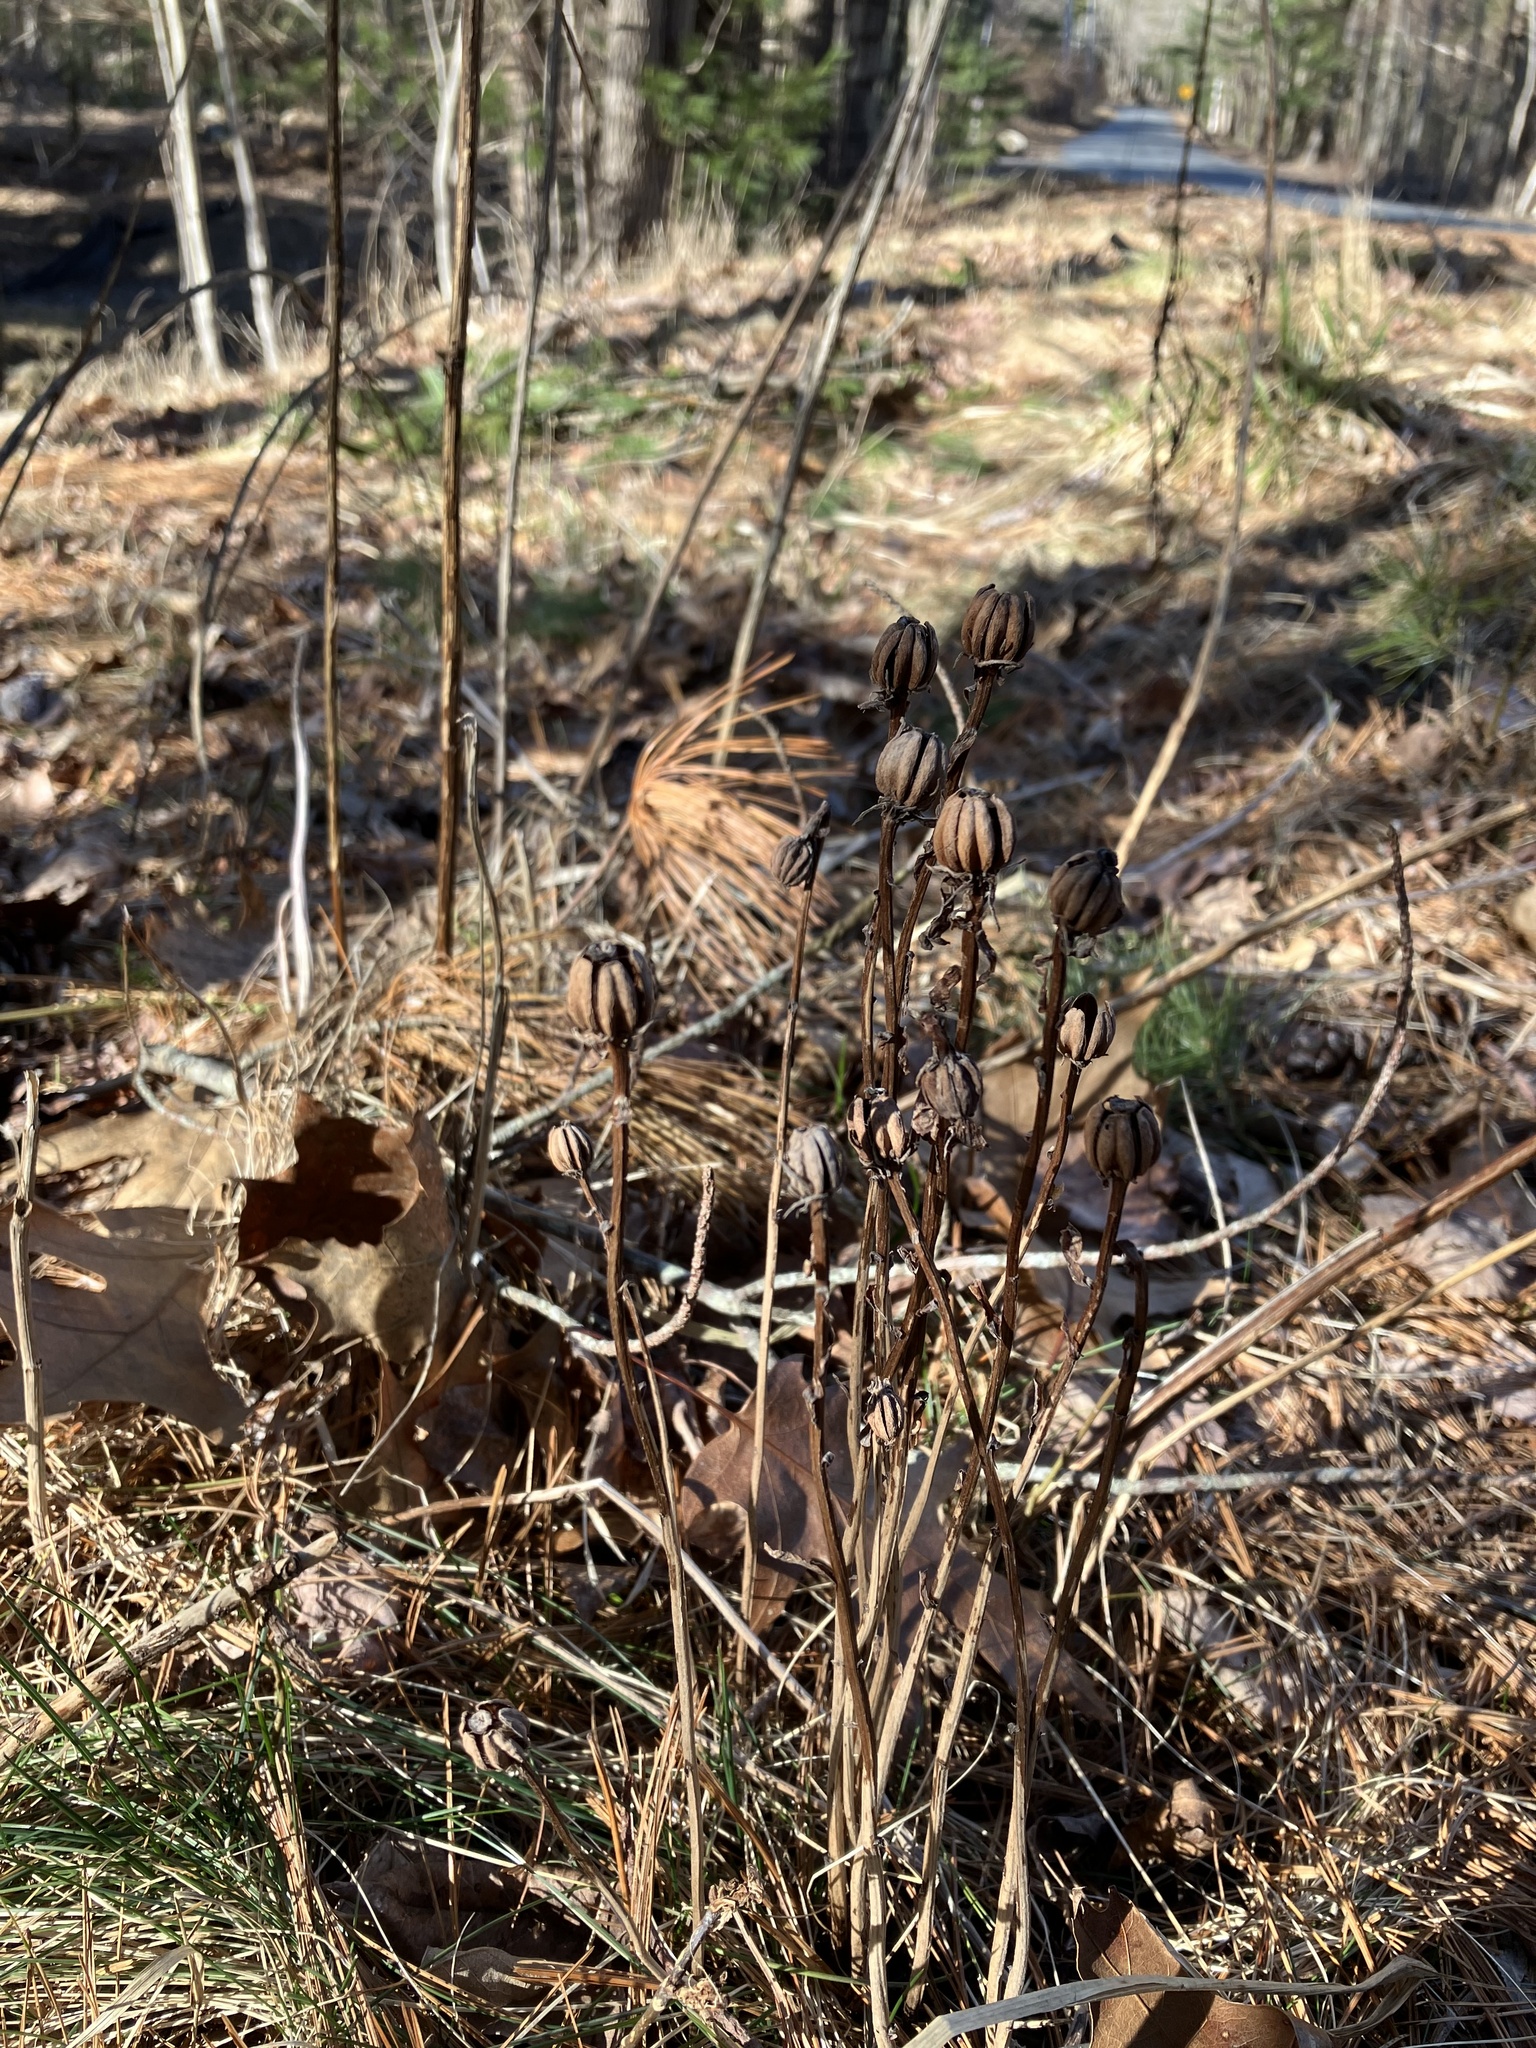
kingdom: Plantae
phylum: Tracheophyta
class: Magnoliopsida
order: Ericales
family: Ericaceae
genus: Monotropa
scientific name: Monotropa uniflora
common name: Convulsion root
